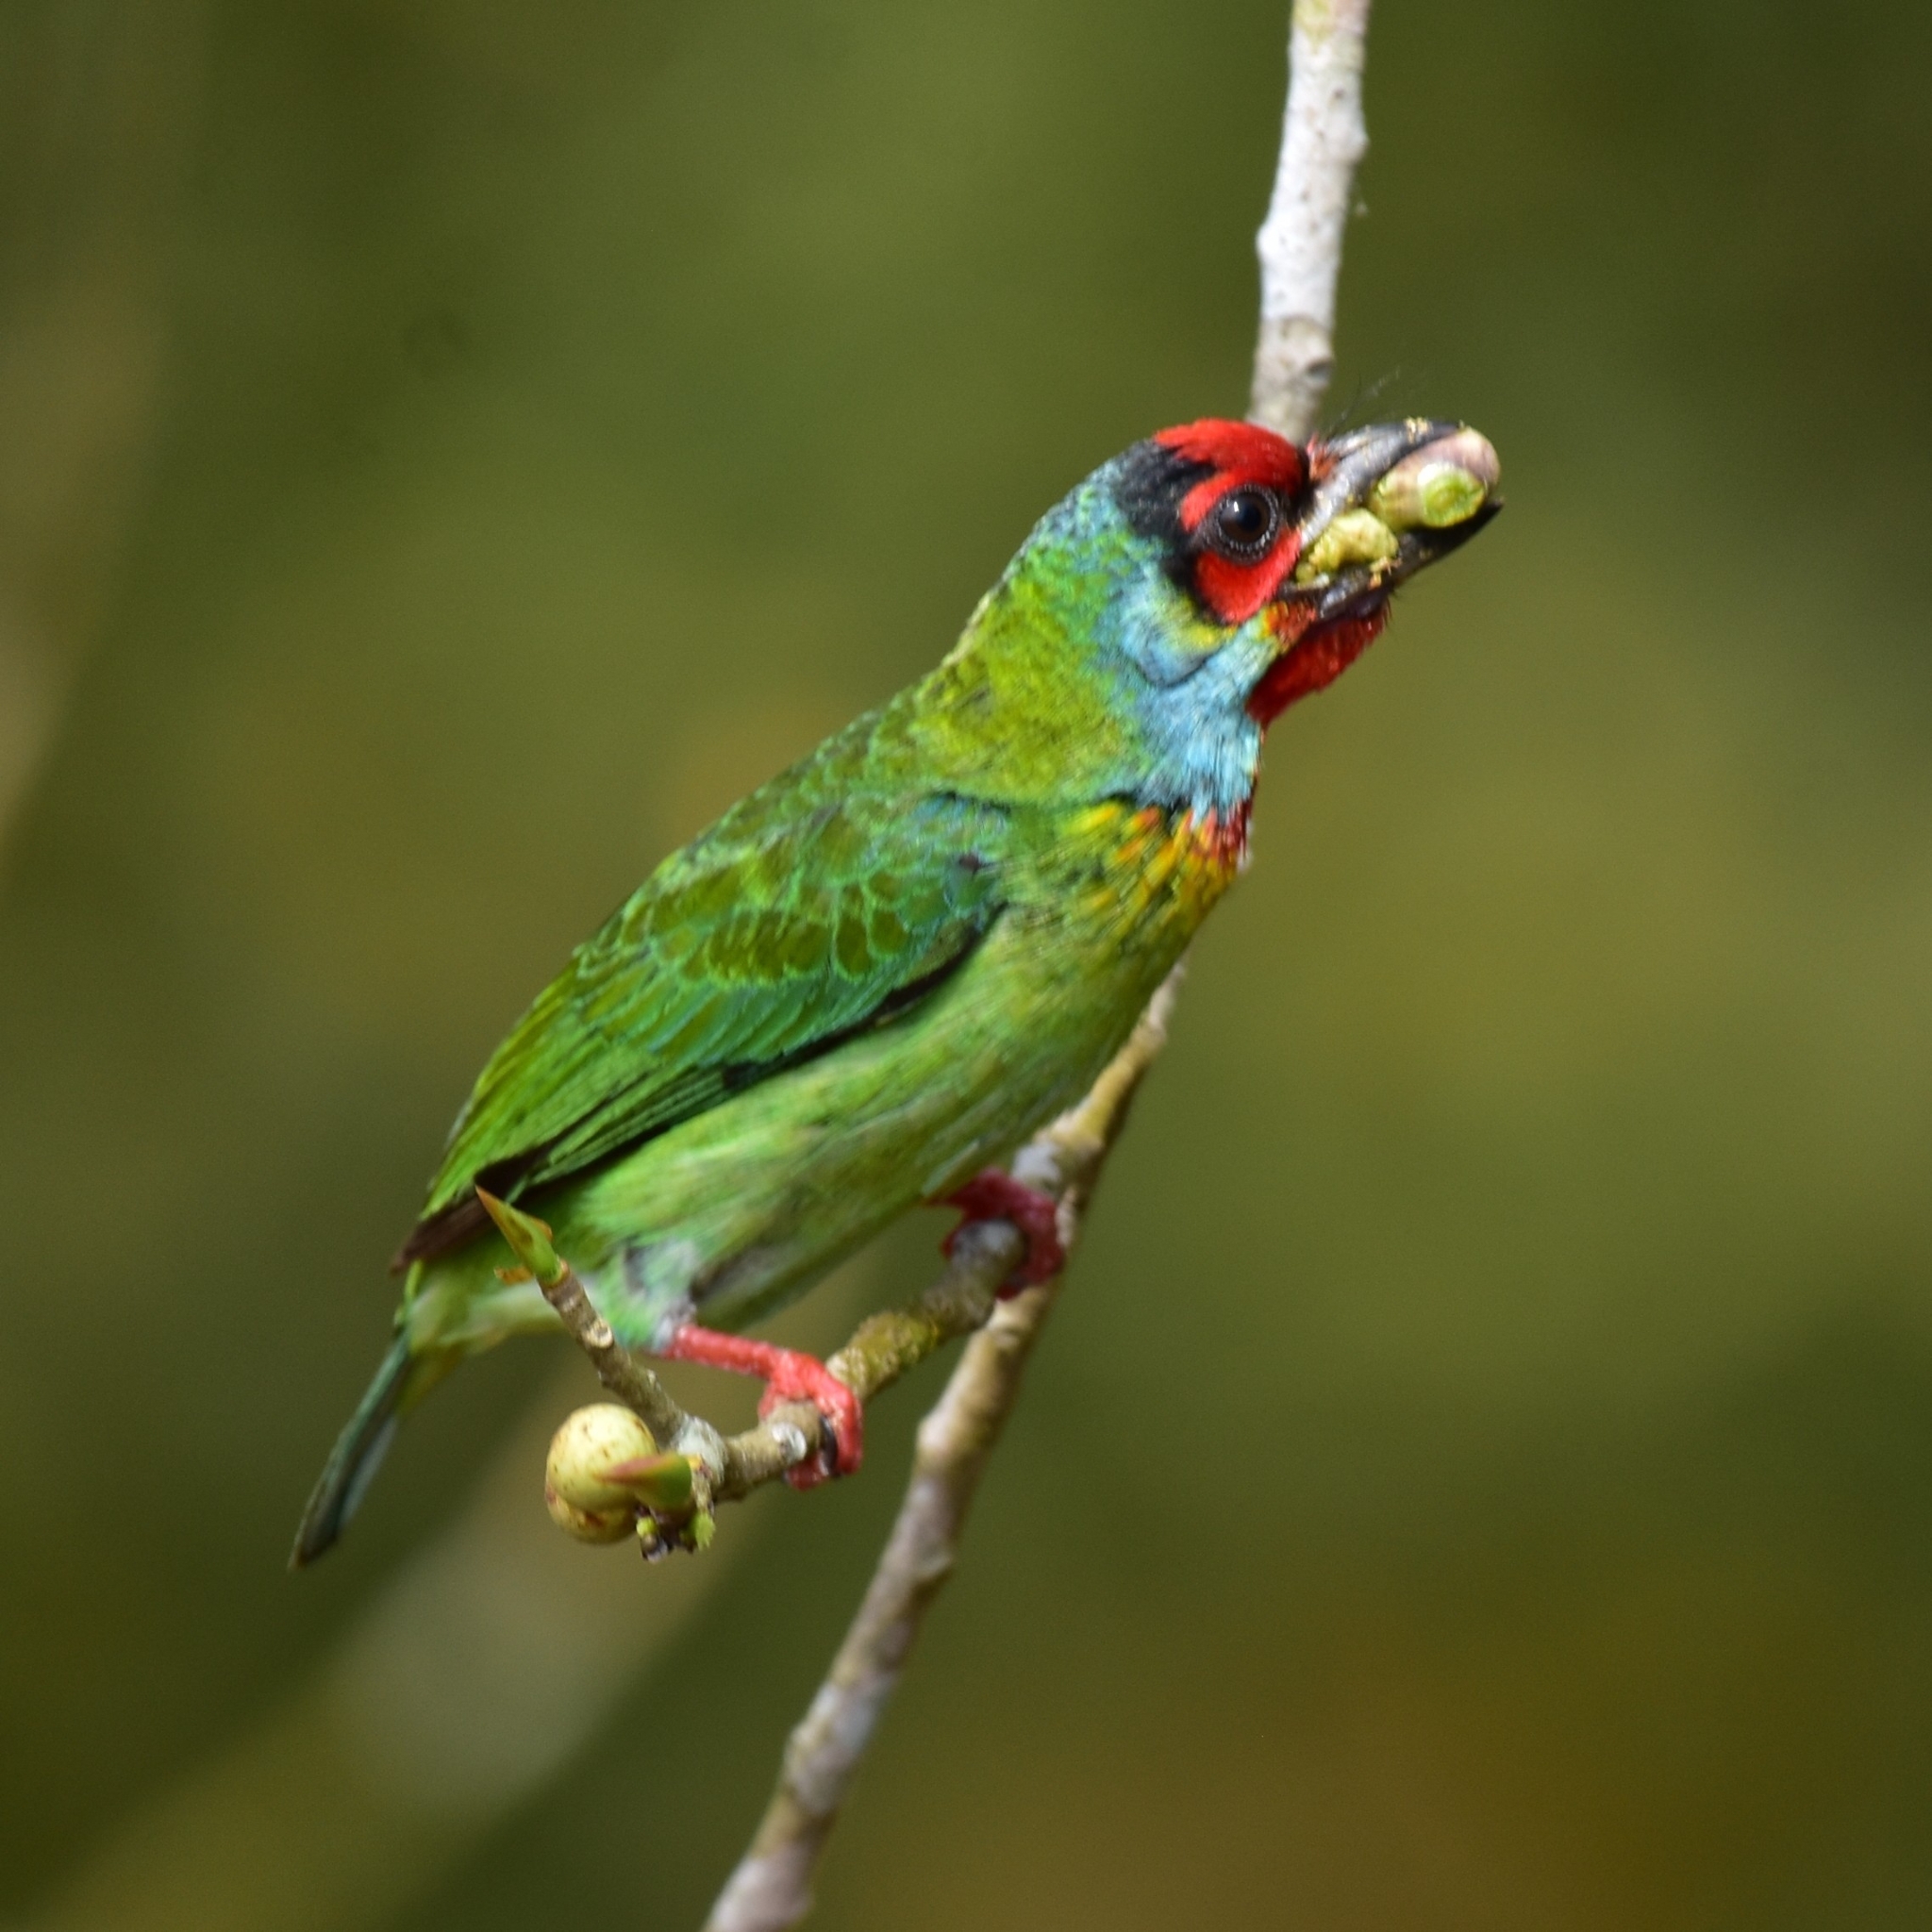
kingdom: Animalia
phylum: Chordata
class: Aves
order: Piciformes
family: Megalaimidae
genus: Psilopogon
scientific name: Psilopogon malabaricus
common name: Malabar barbet
